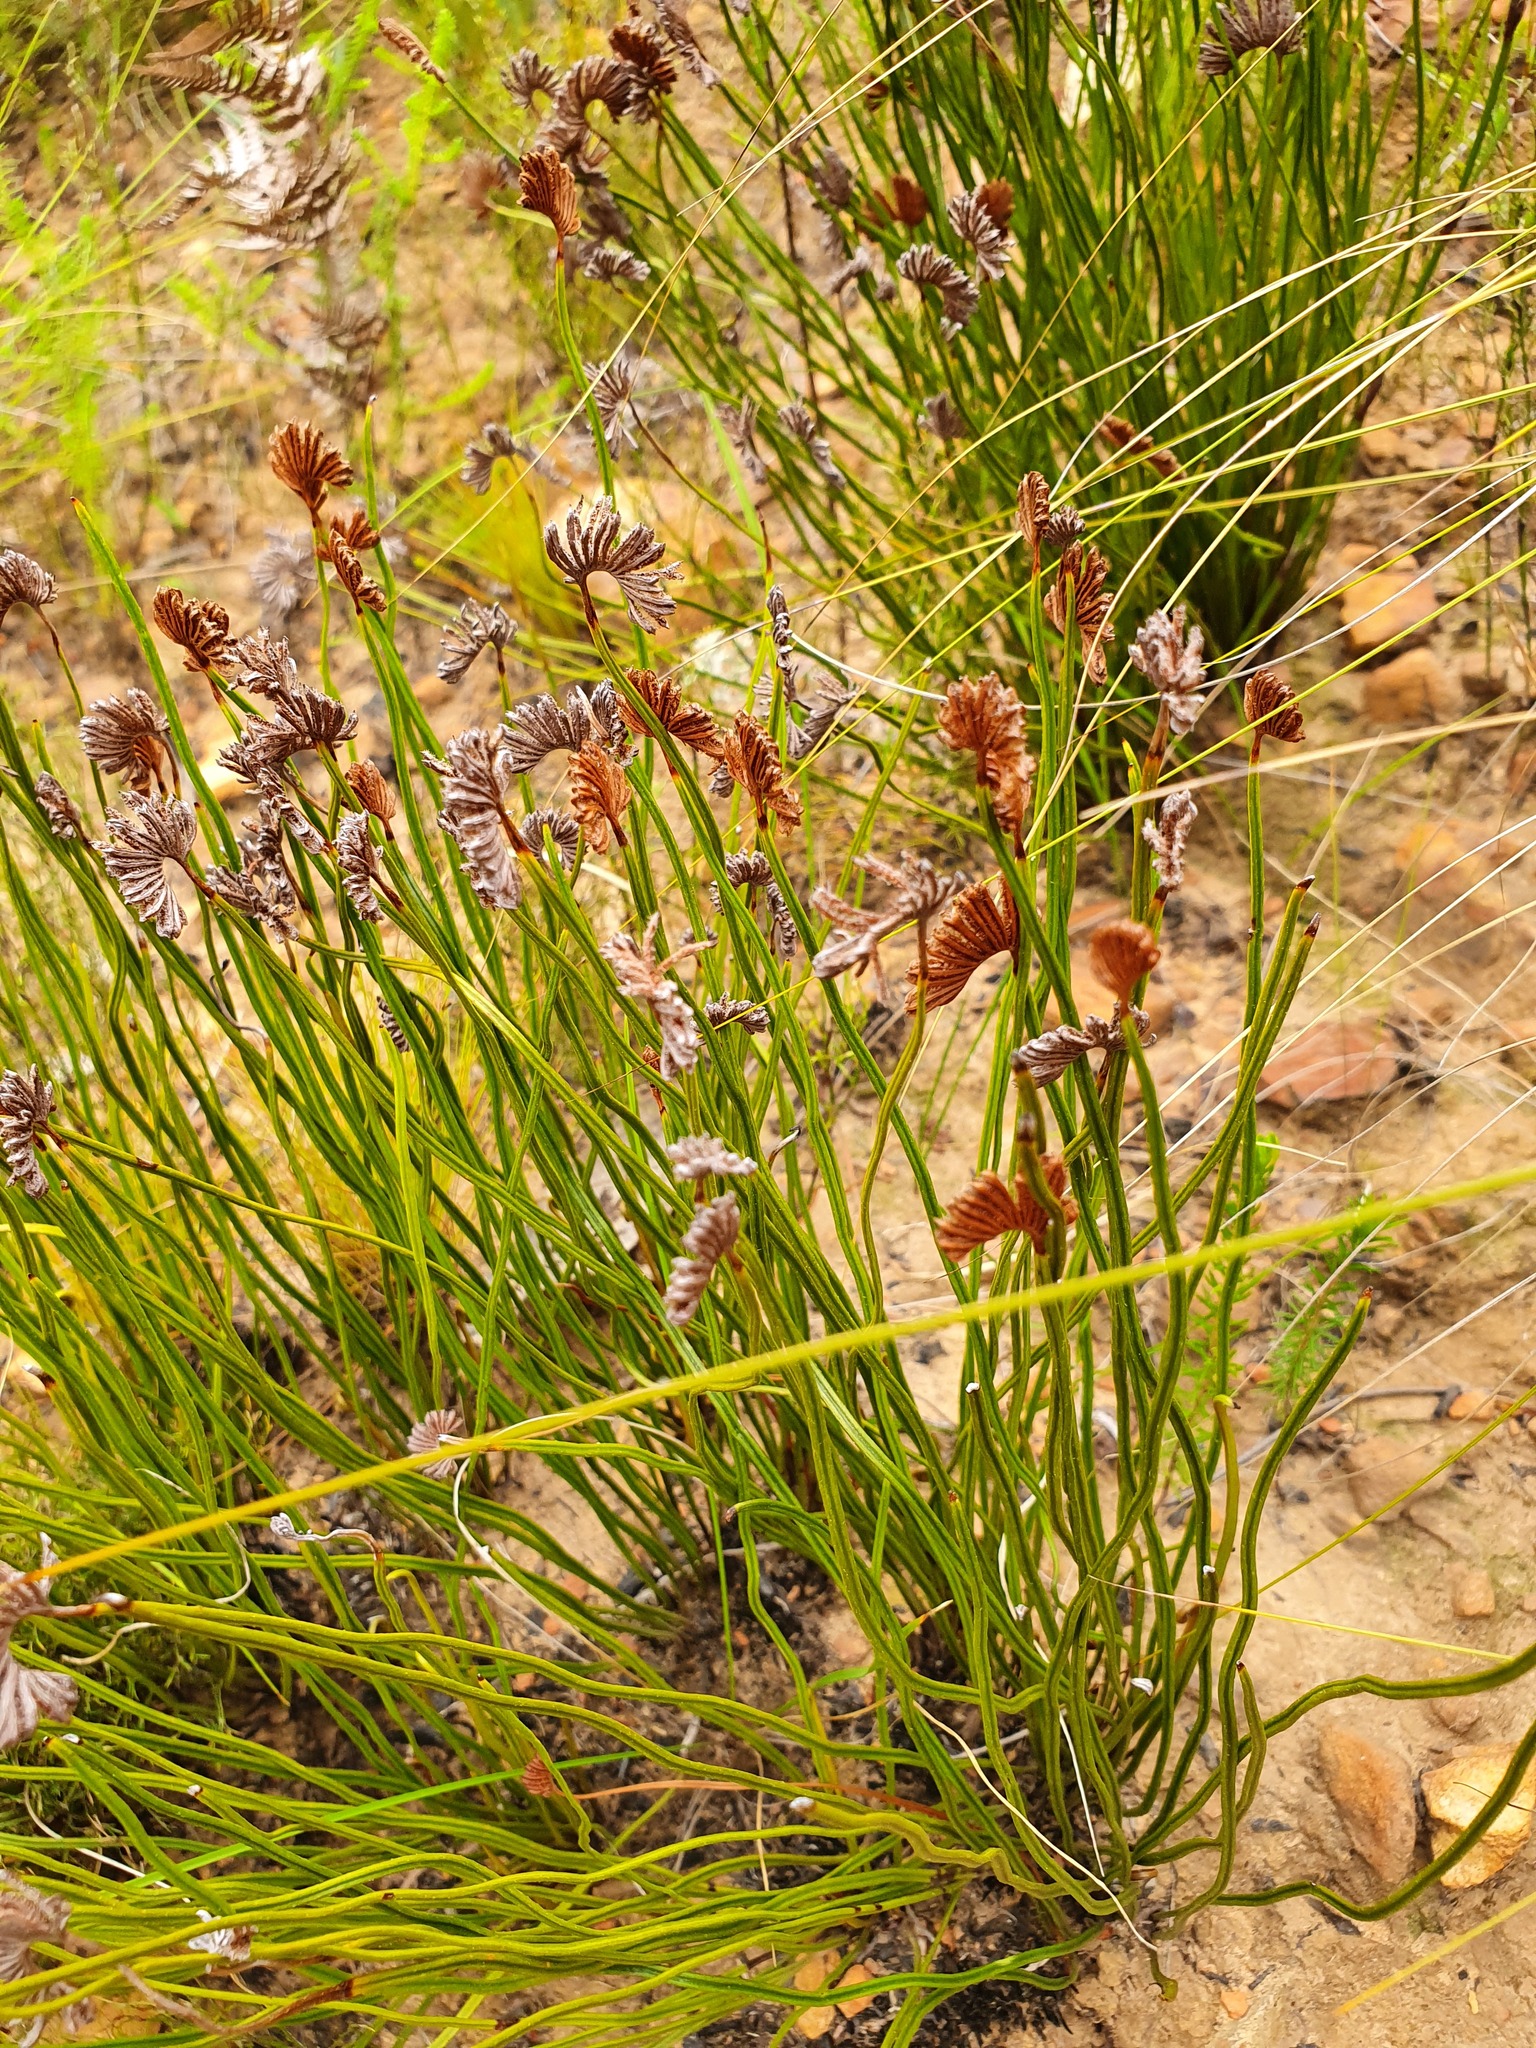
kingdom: Plantae
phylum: Tracheophyta
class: Polypodiopsida
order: Schizaeales
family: Schizaeaceae
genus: Schizaea
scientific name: Schizaea pectinata
